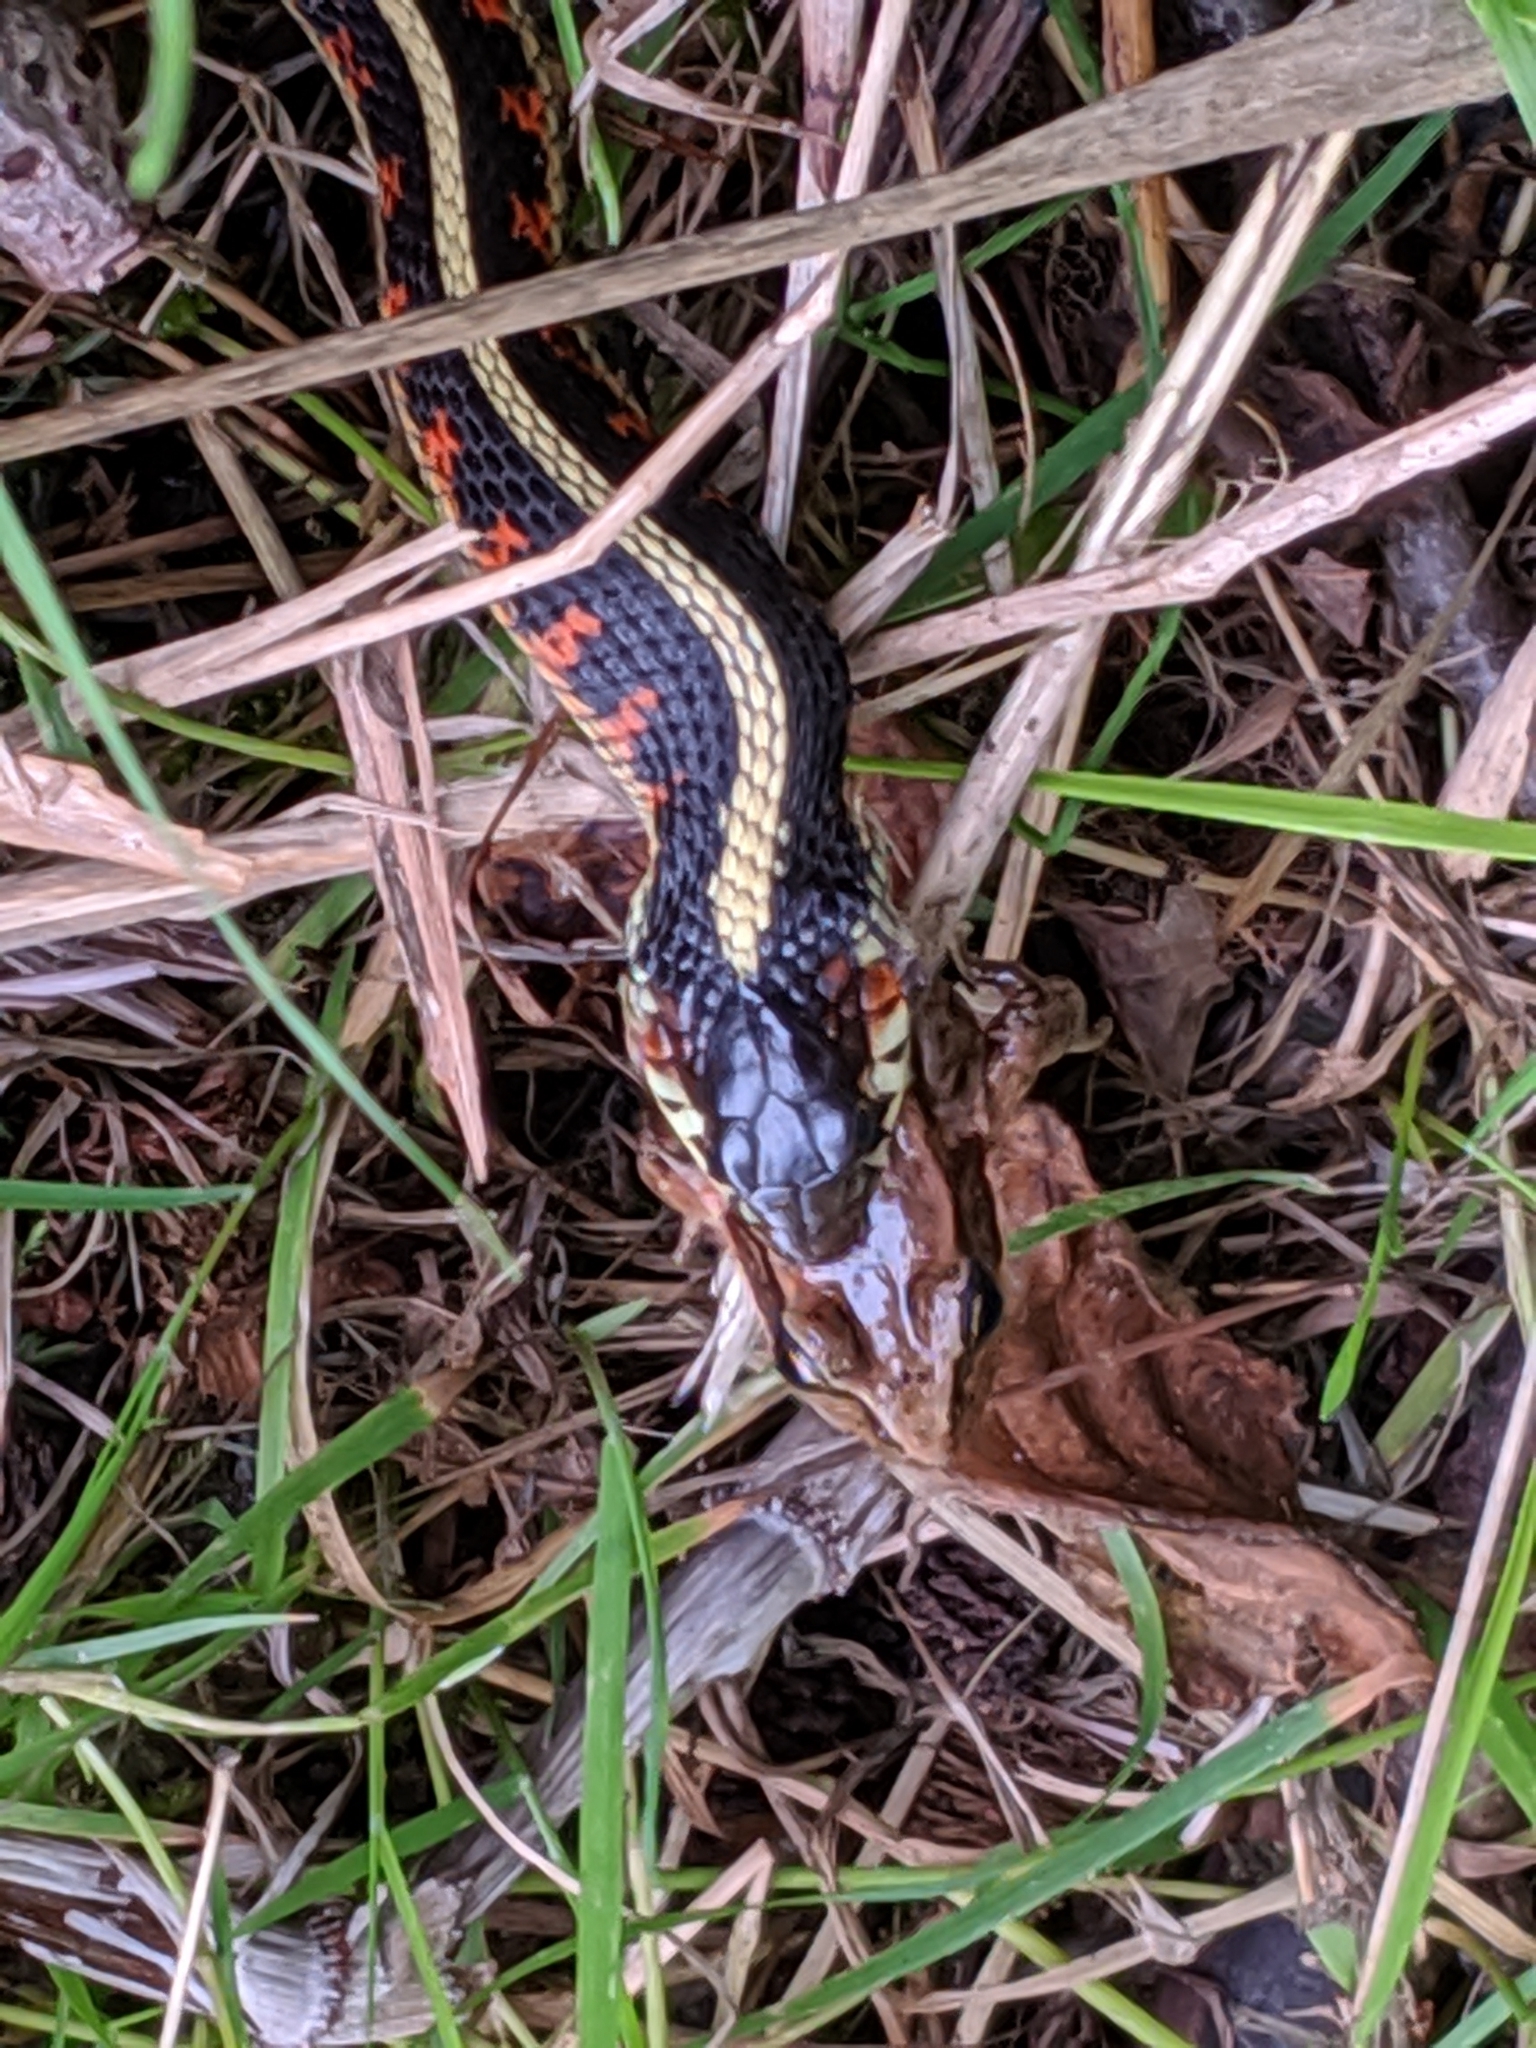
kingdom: Animalia
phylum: Chordata
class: Squamata
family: Colubridae
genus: Thamnophis
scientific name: Thamnophis sirtalis
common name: Common garter snake
